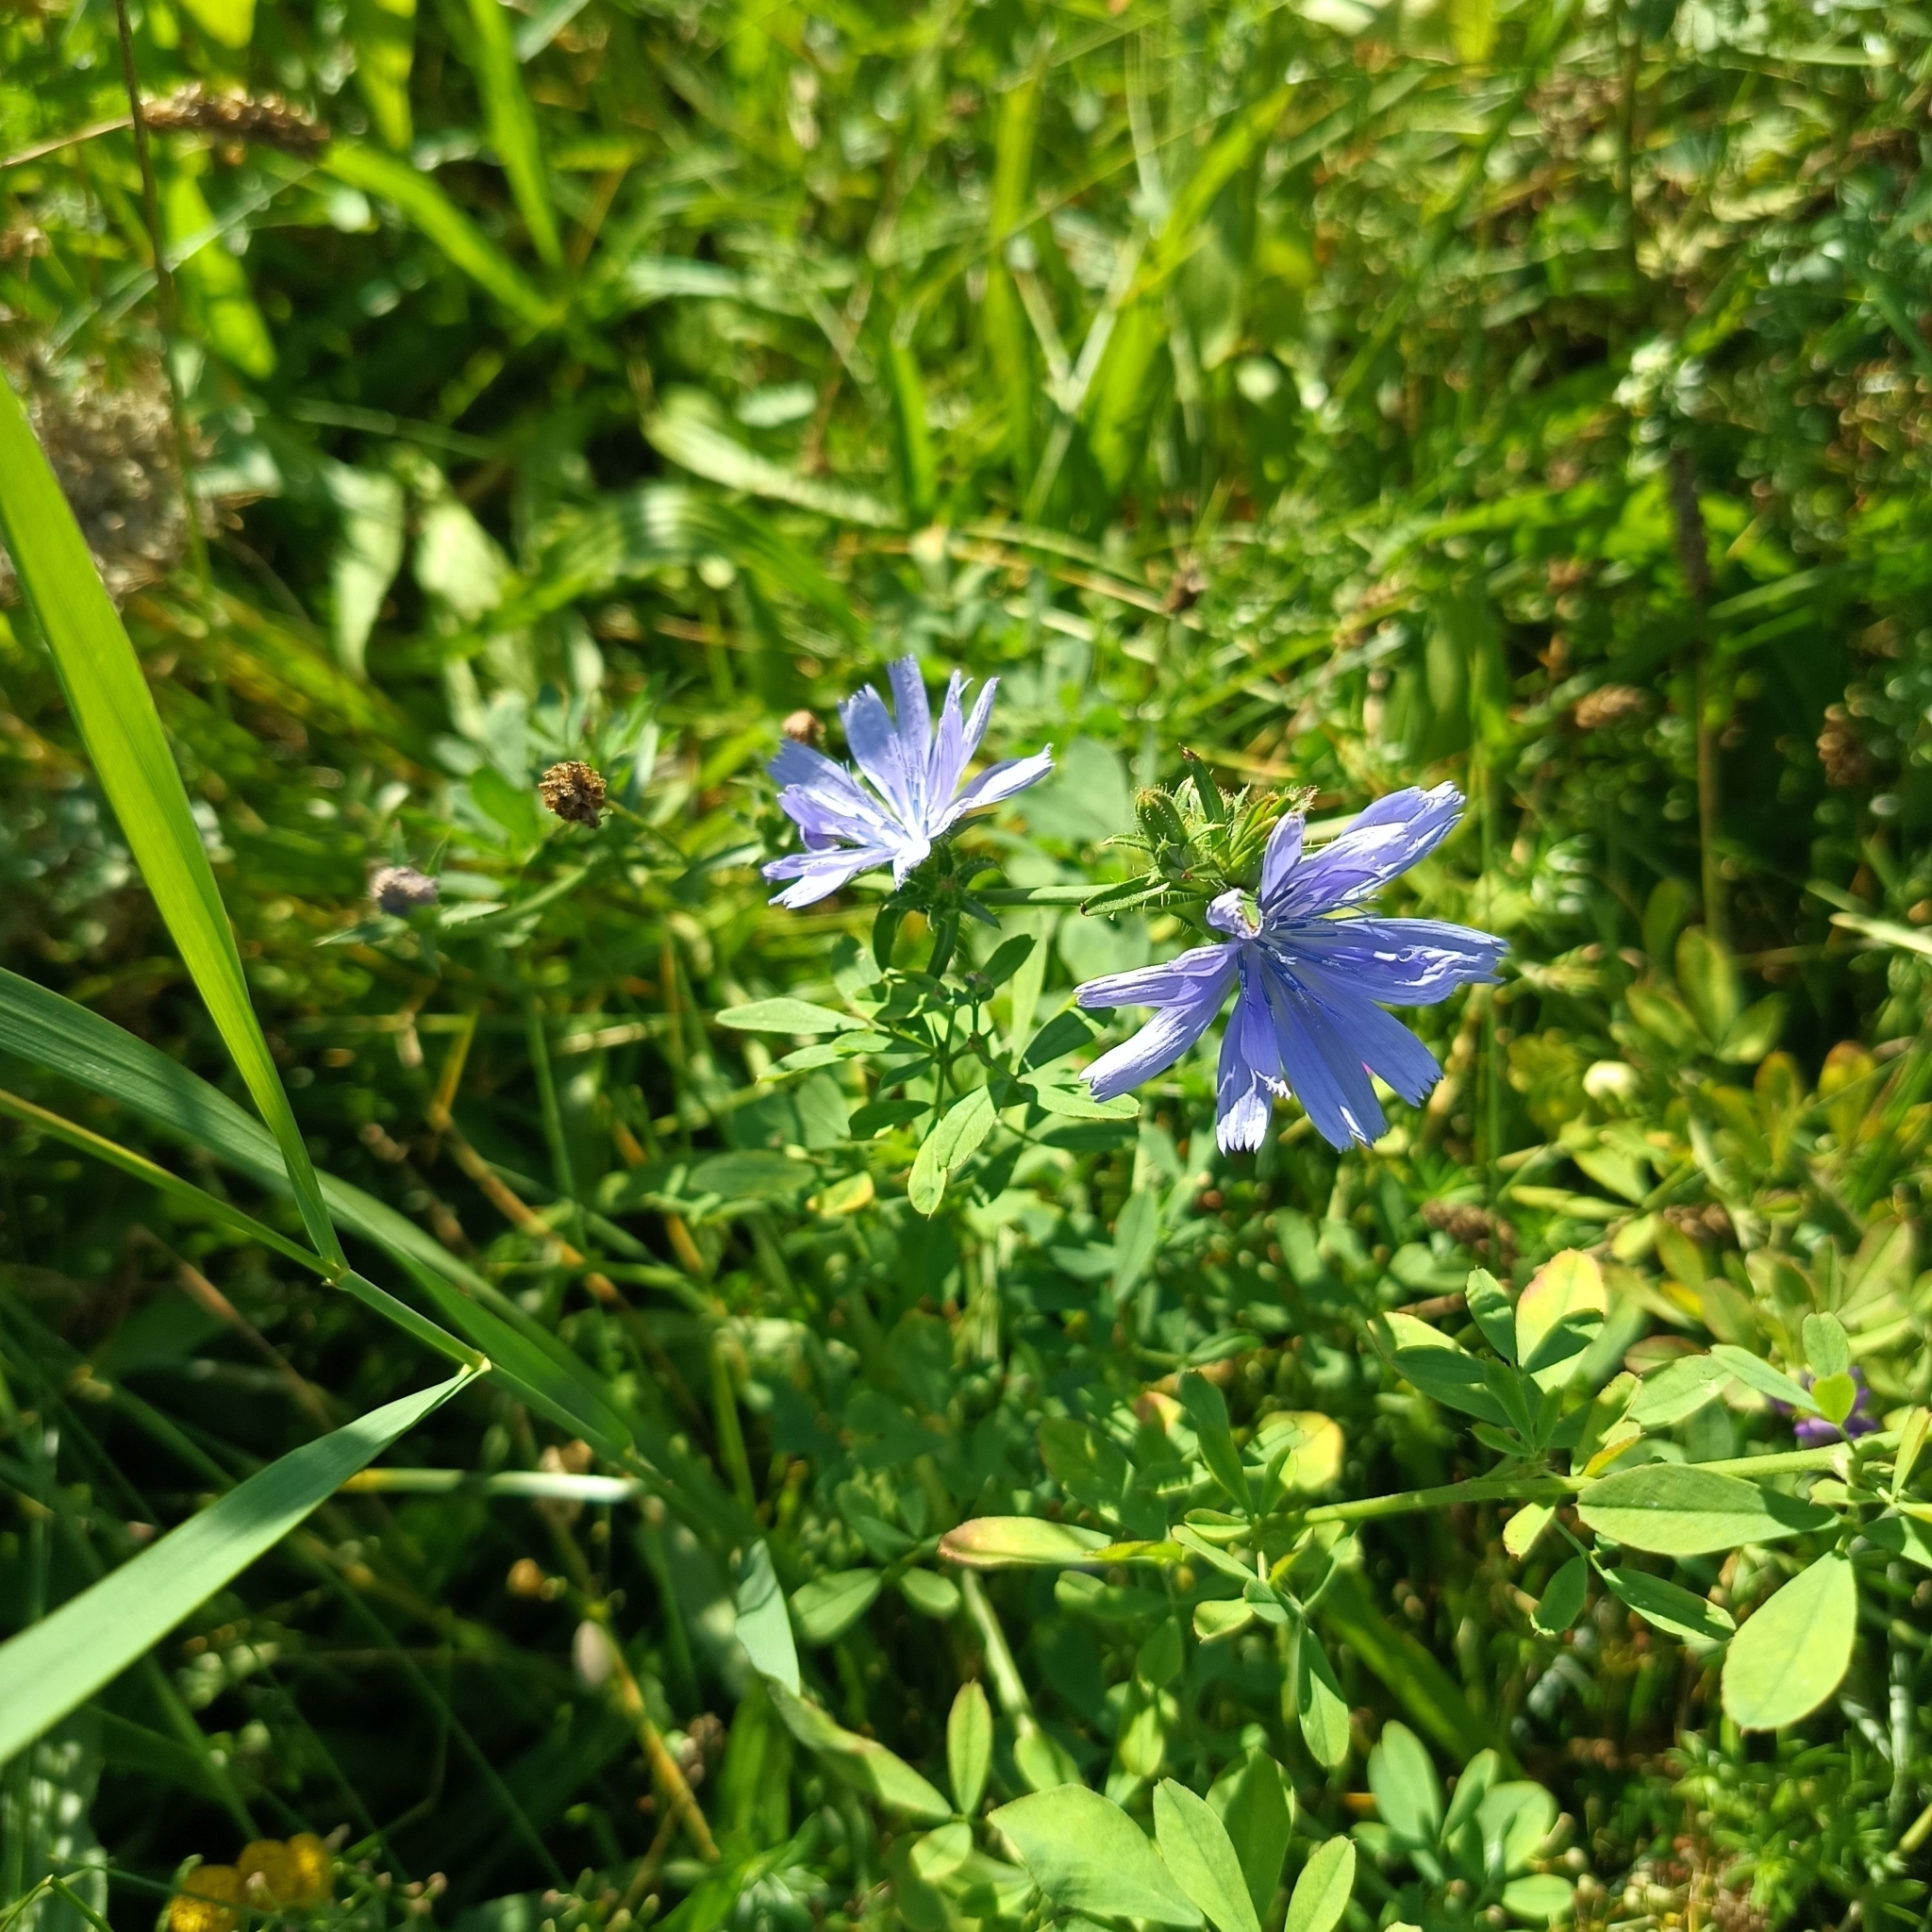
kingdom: Plantae
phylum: Tracheophyta
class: Magnoliopsida
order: Asterales
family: Asteraceae
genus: Cichorium
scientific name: Cichorium intybus
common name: Chicory
